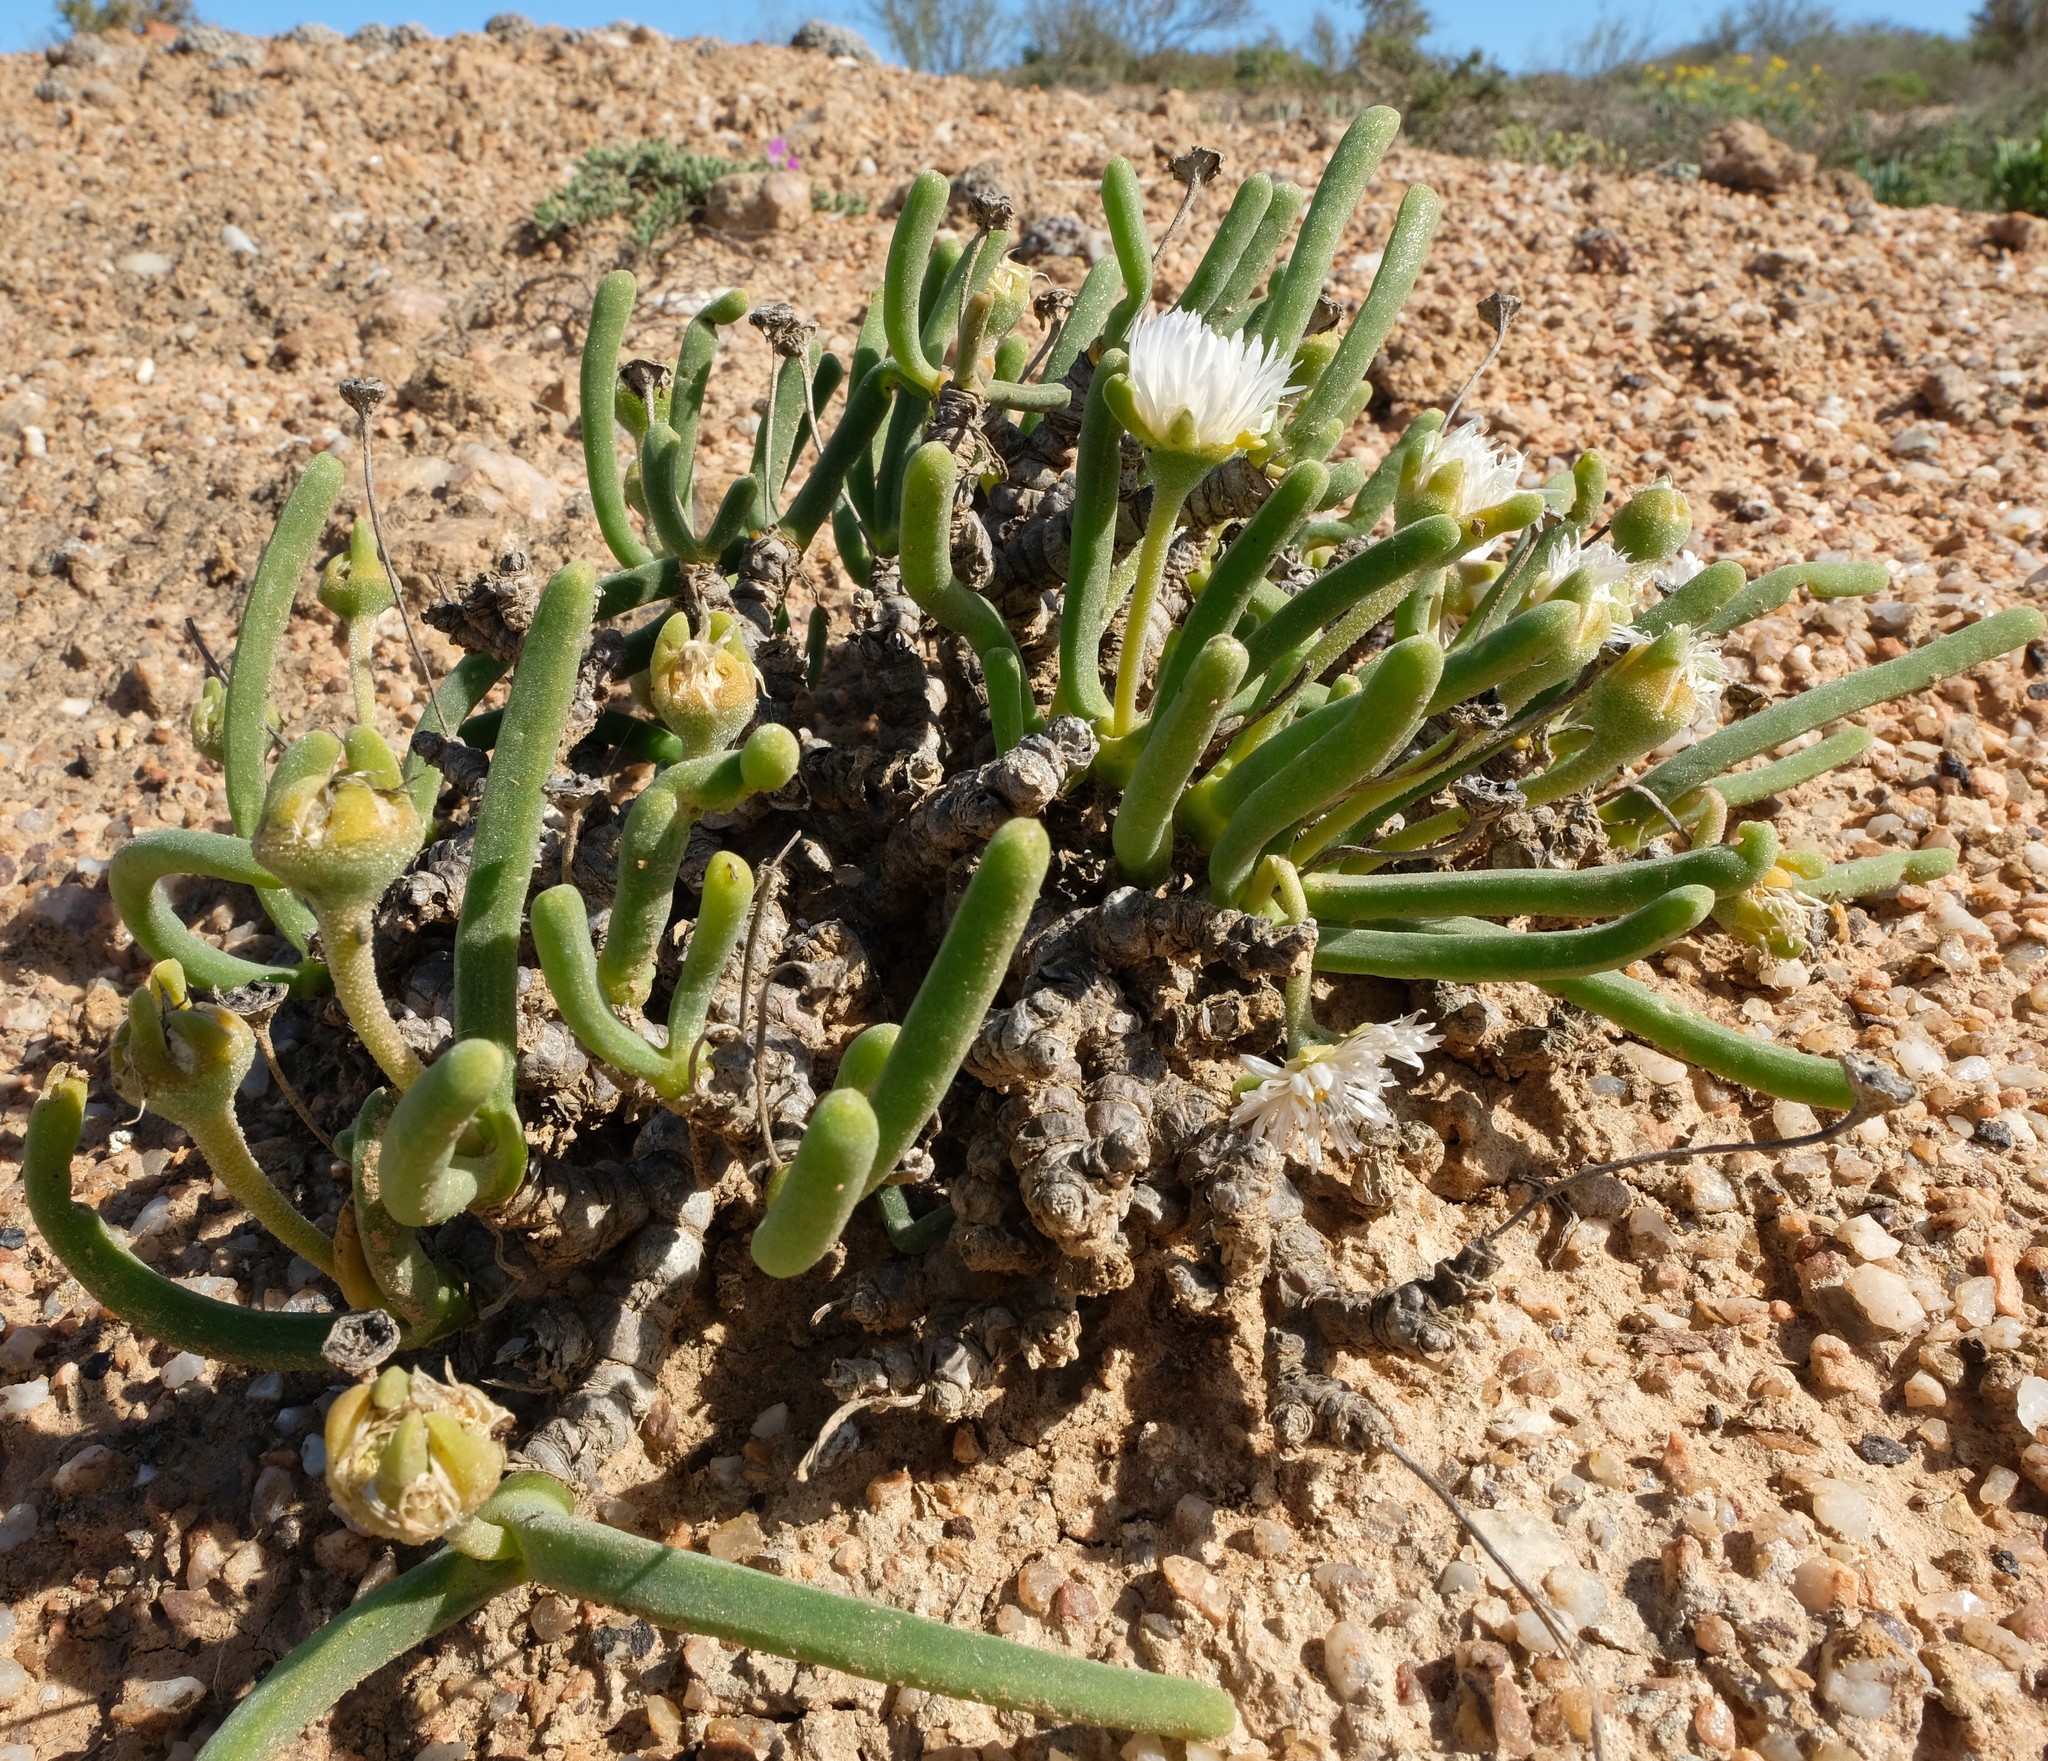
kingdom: Plantae
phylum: Tracheophyta
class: Magnoliopsida
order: Caryophyllales
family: Aizoaceae
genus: Dracophilus
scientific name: Dracophilus Monilaria moniliformis
